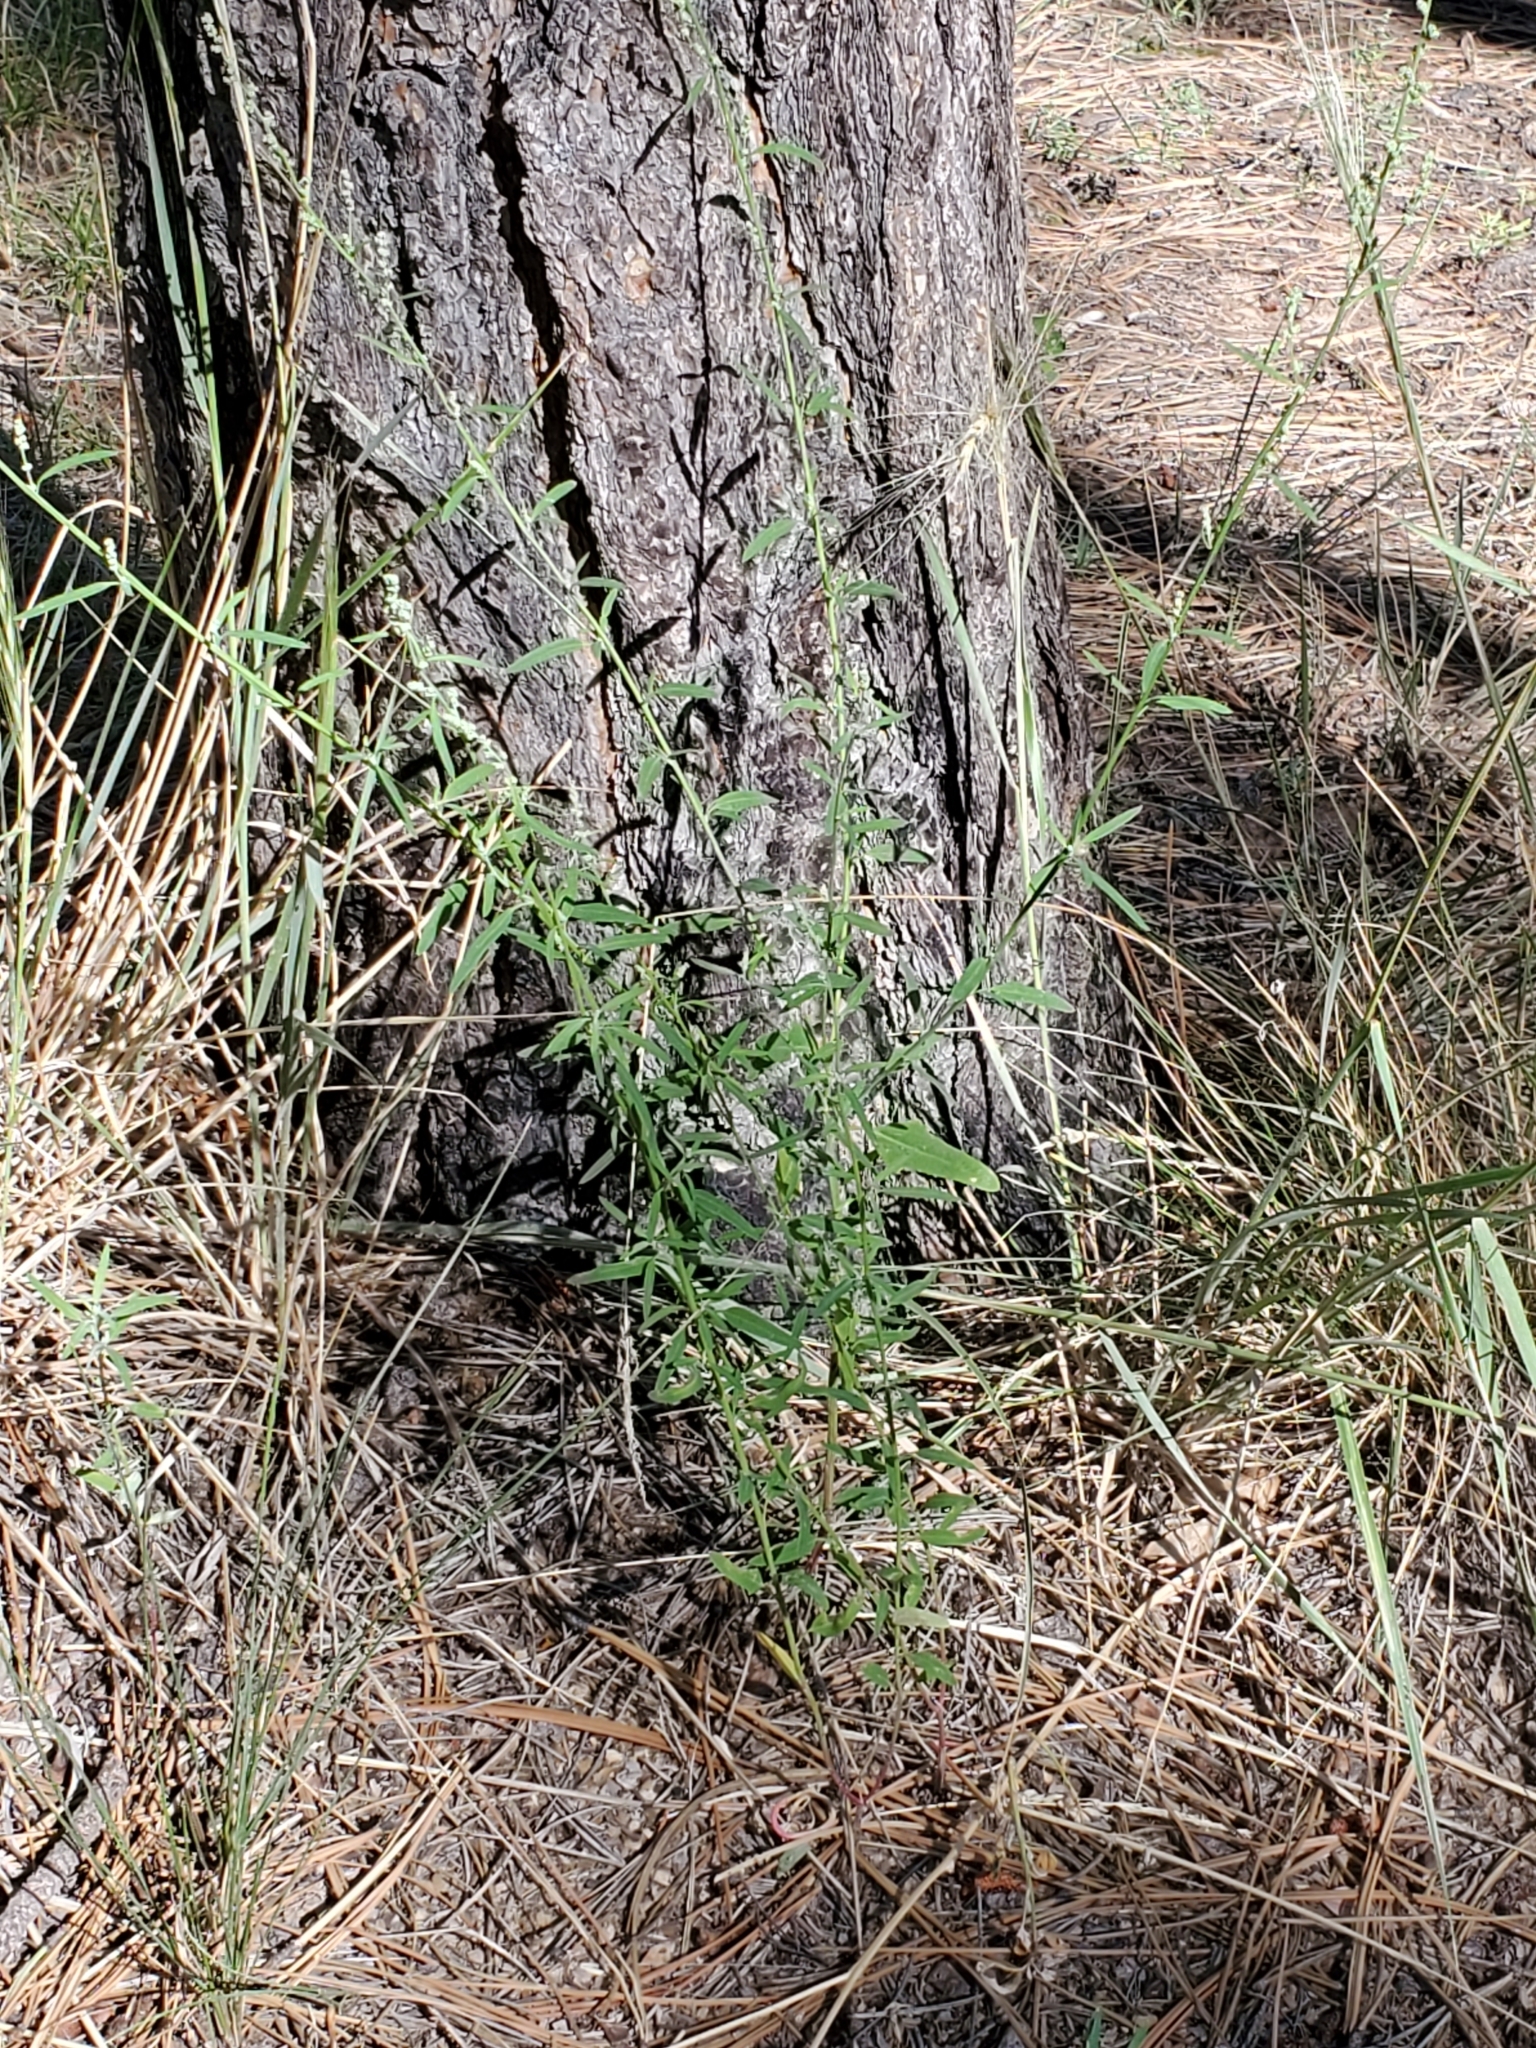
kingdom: Plantae
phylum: Tracheophyta
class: Magnoliopsida
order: Caryophyllales
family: Amaranthaceae
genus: Chenopodium
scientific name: Chenopodium leptophyllum
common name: Narrow-leaf goosefoot
